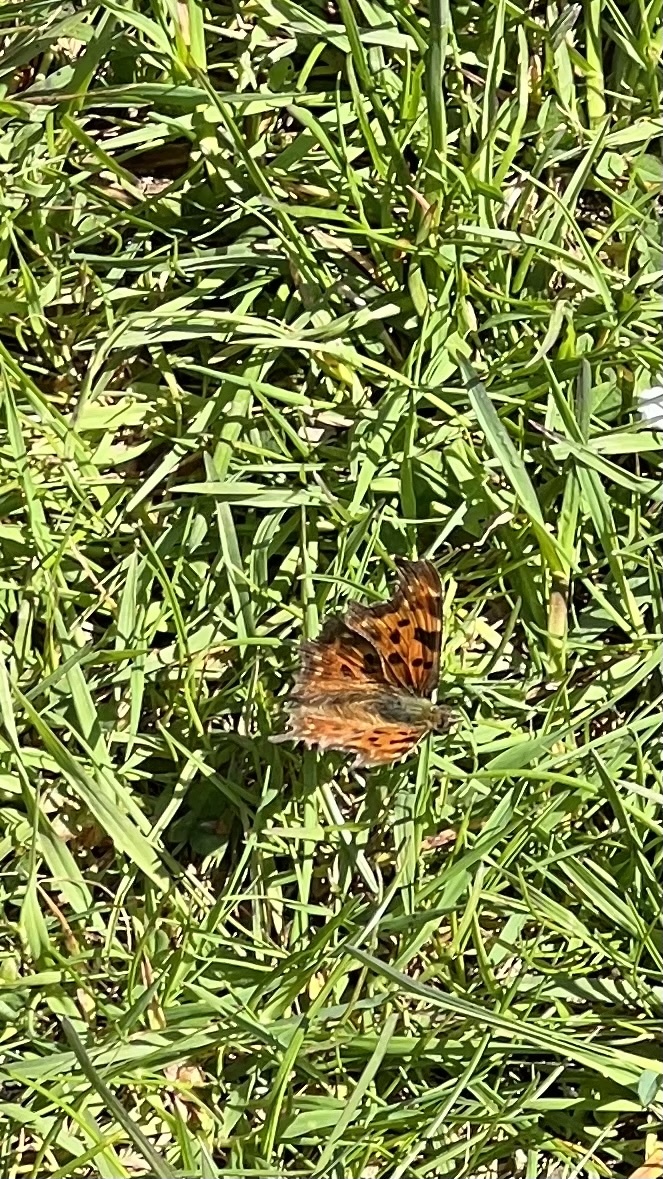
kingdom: Animalia
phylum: Arthropoda
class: Insecta
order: Lepidoptera
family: Nymphalidae
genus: Polygonia
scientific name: Polygonia c-album
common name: Comma
